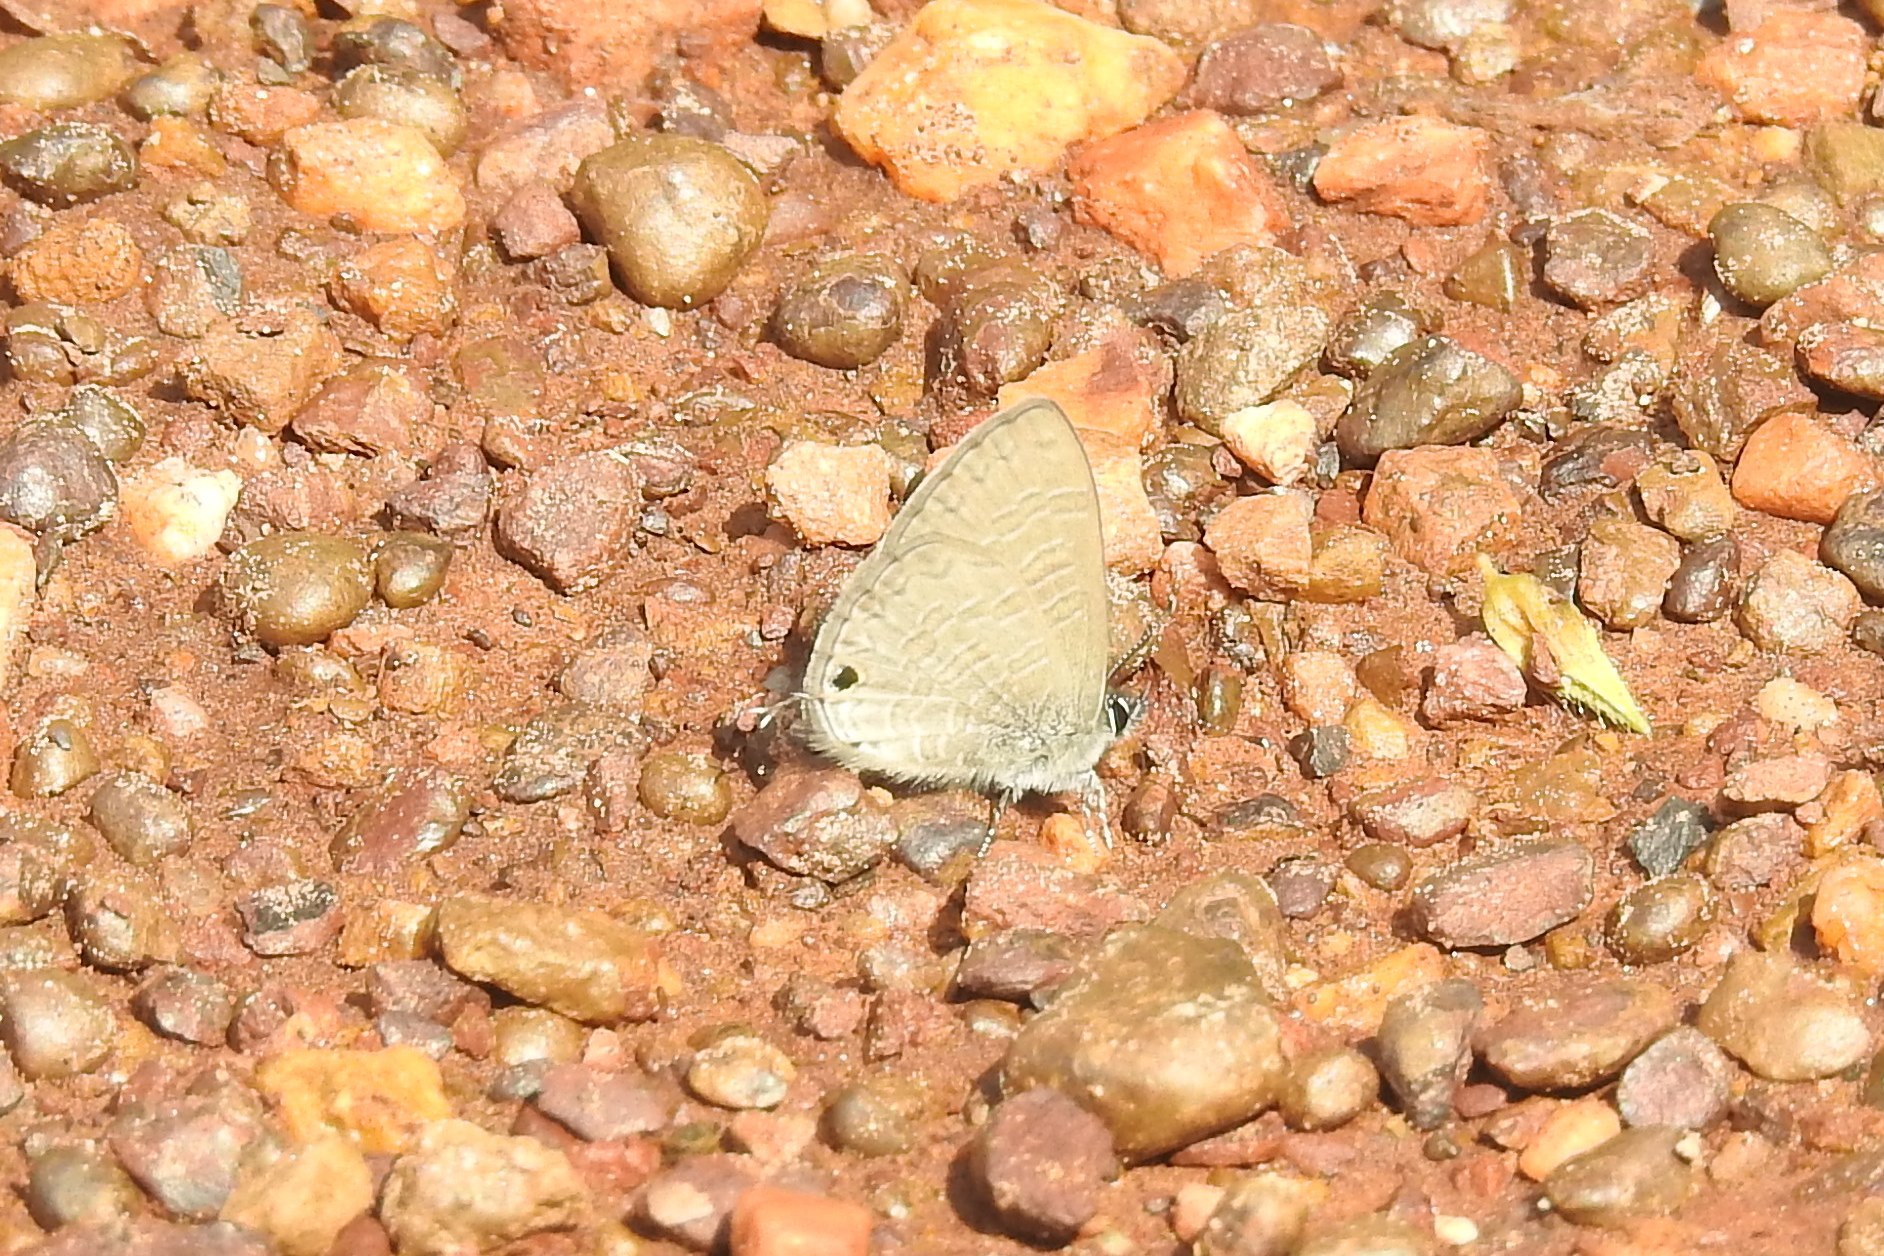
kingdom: Animalia
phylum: Arthropoda
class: Insecta
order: Lepidoptera
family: Lycaenidae
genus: Prosotas
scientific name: Prosotas nora
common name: Common line blue
